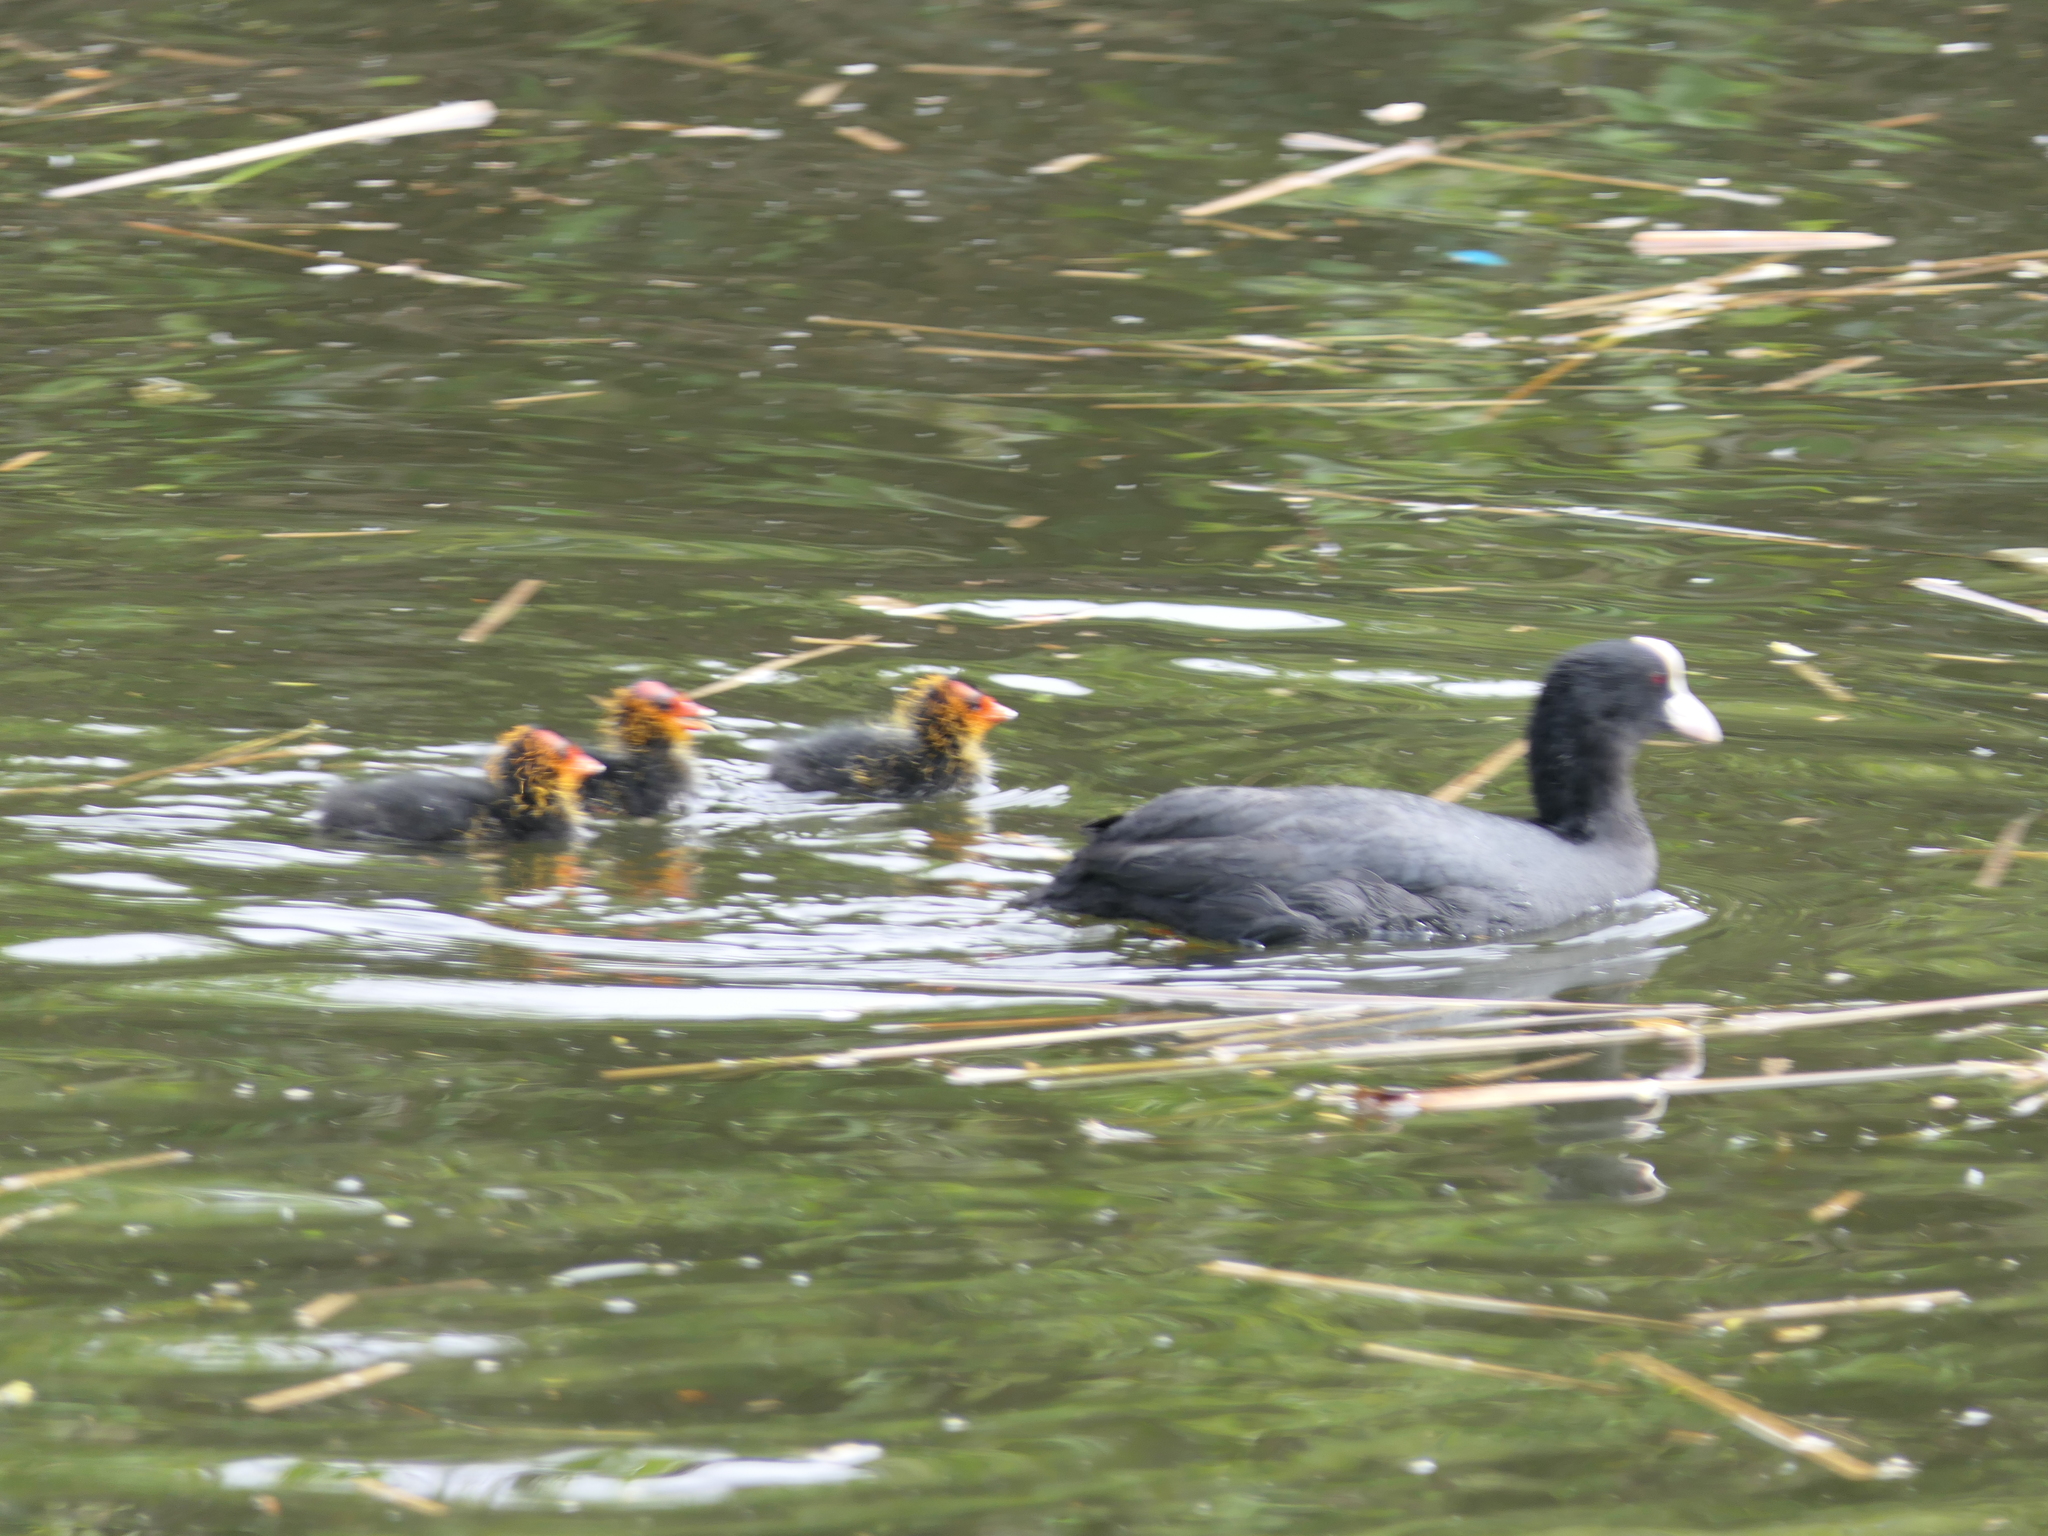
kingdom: Animalia
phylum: Chordata
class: Aves
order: Gruiformes
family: Rallidae
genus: Fulica
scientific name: Fulica atra
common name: Eurasian coot
